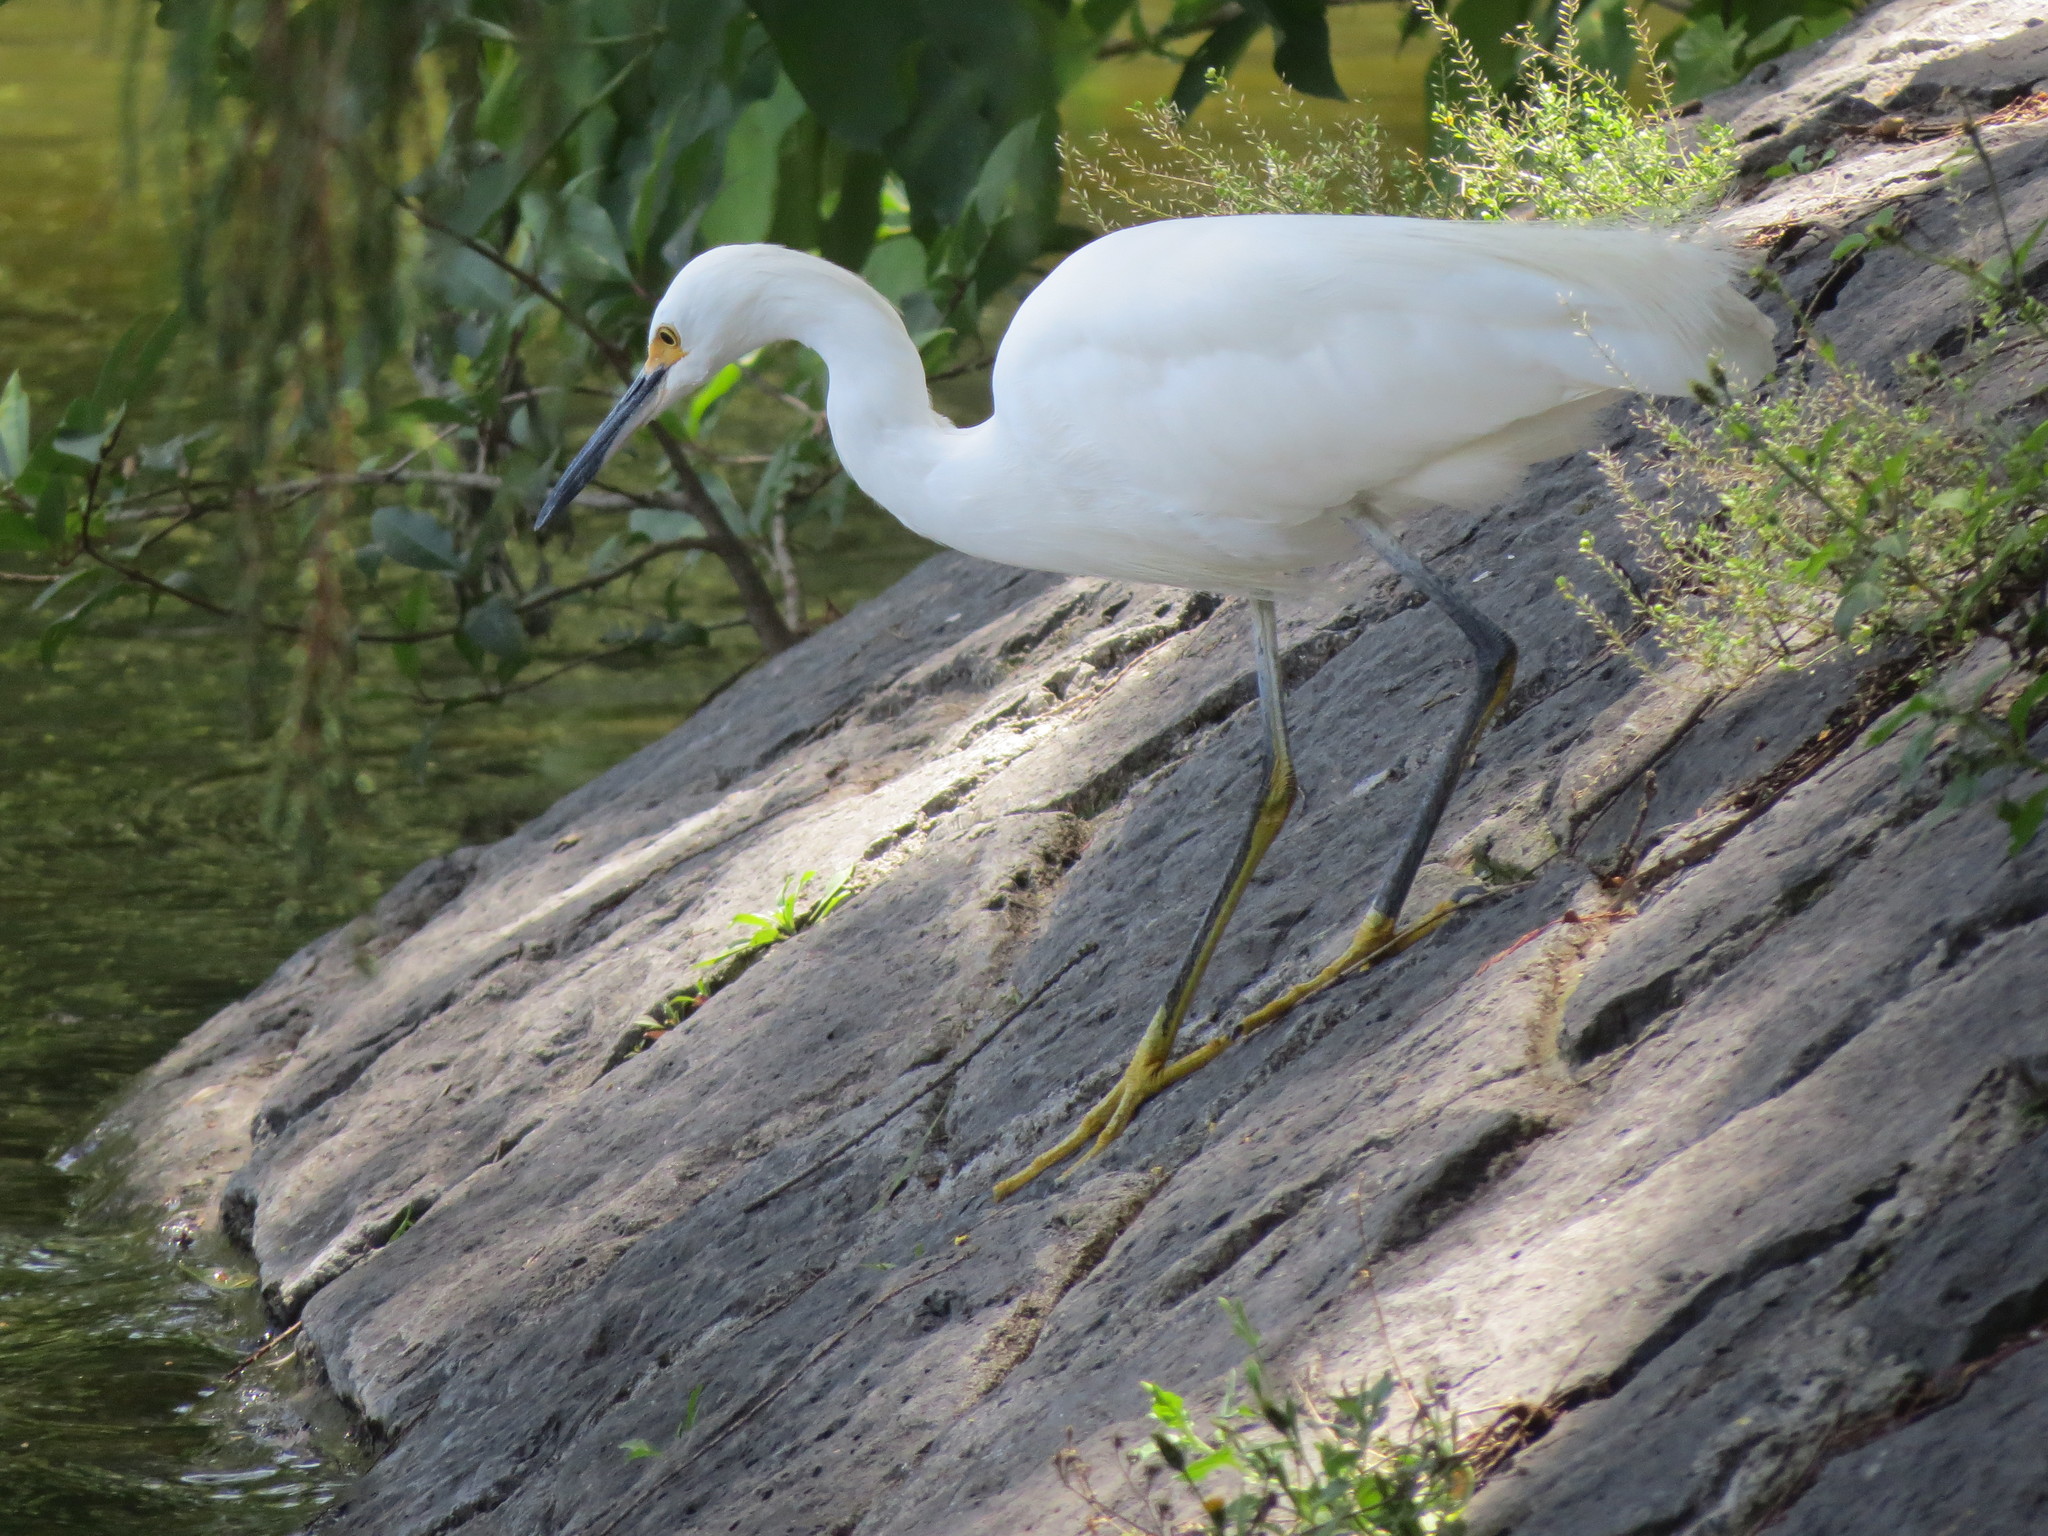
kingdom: Animalia
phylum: Chordata
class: Aves
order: Pelecaniformes
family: Ardeidae
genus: Egretta
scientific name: Egretta thula
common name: Snowy egret
